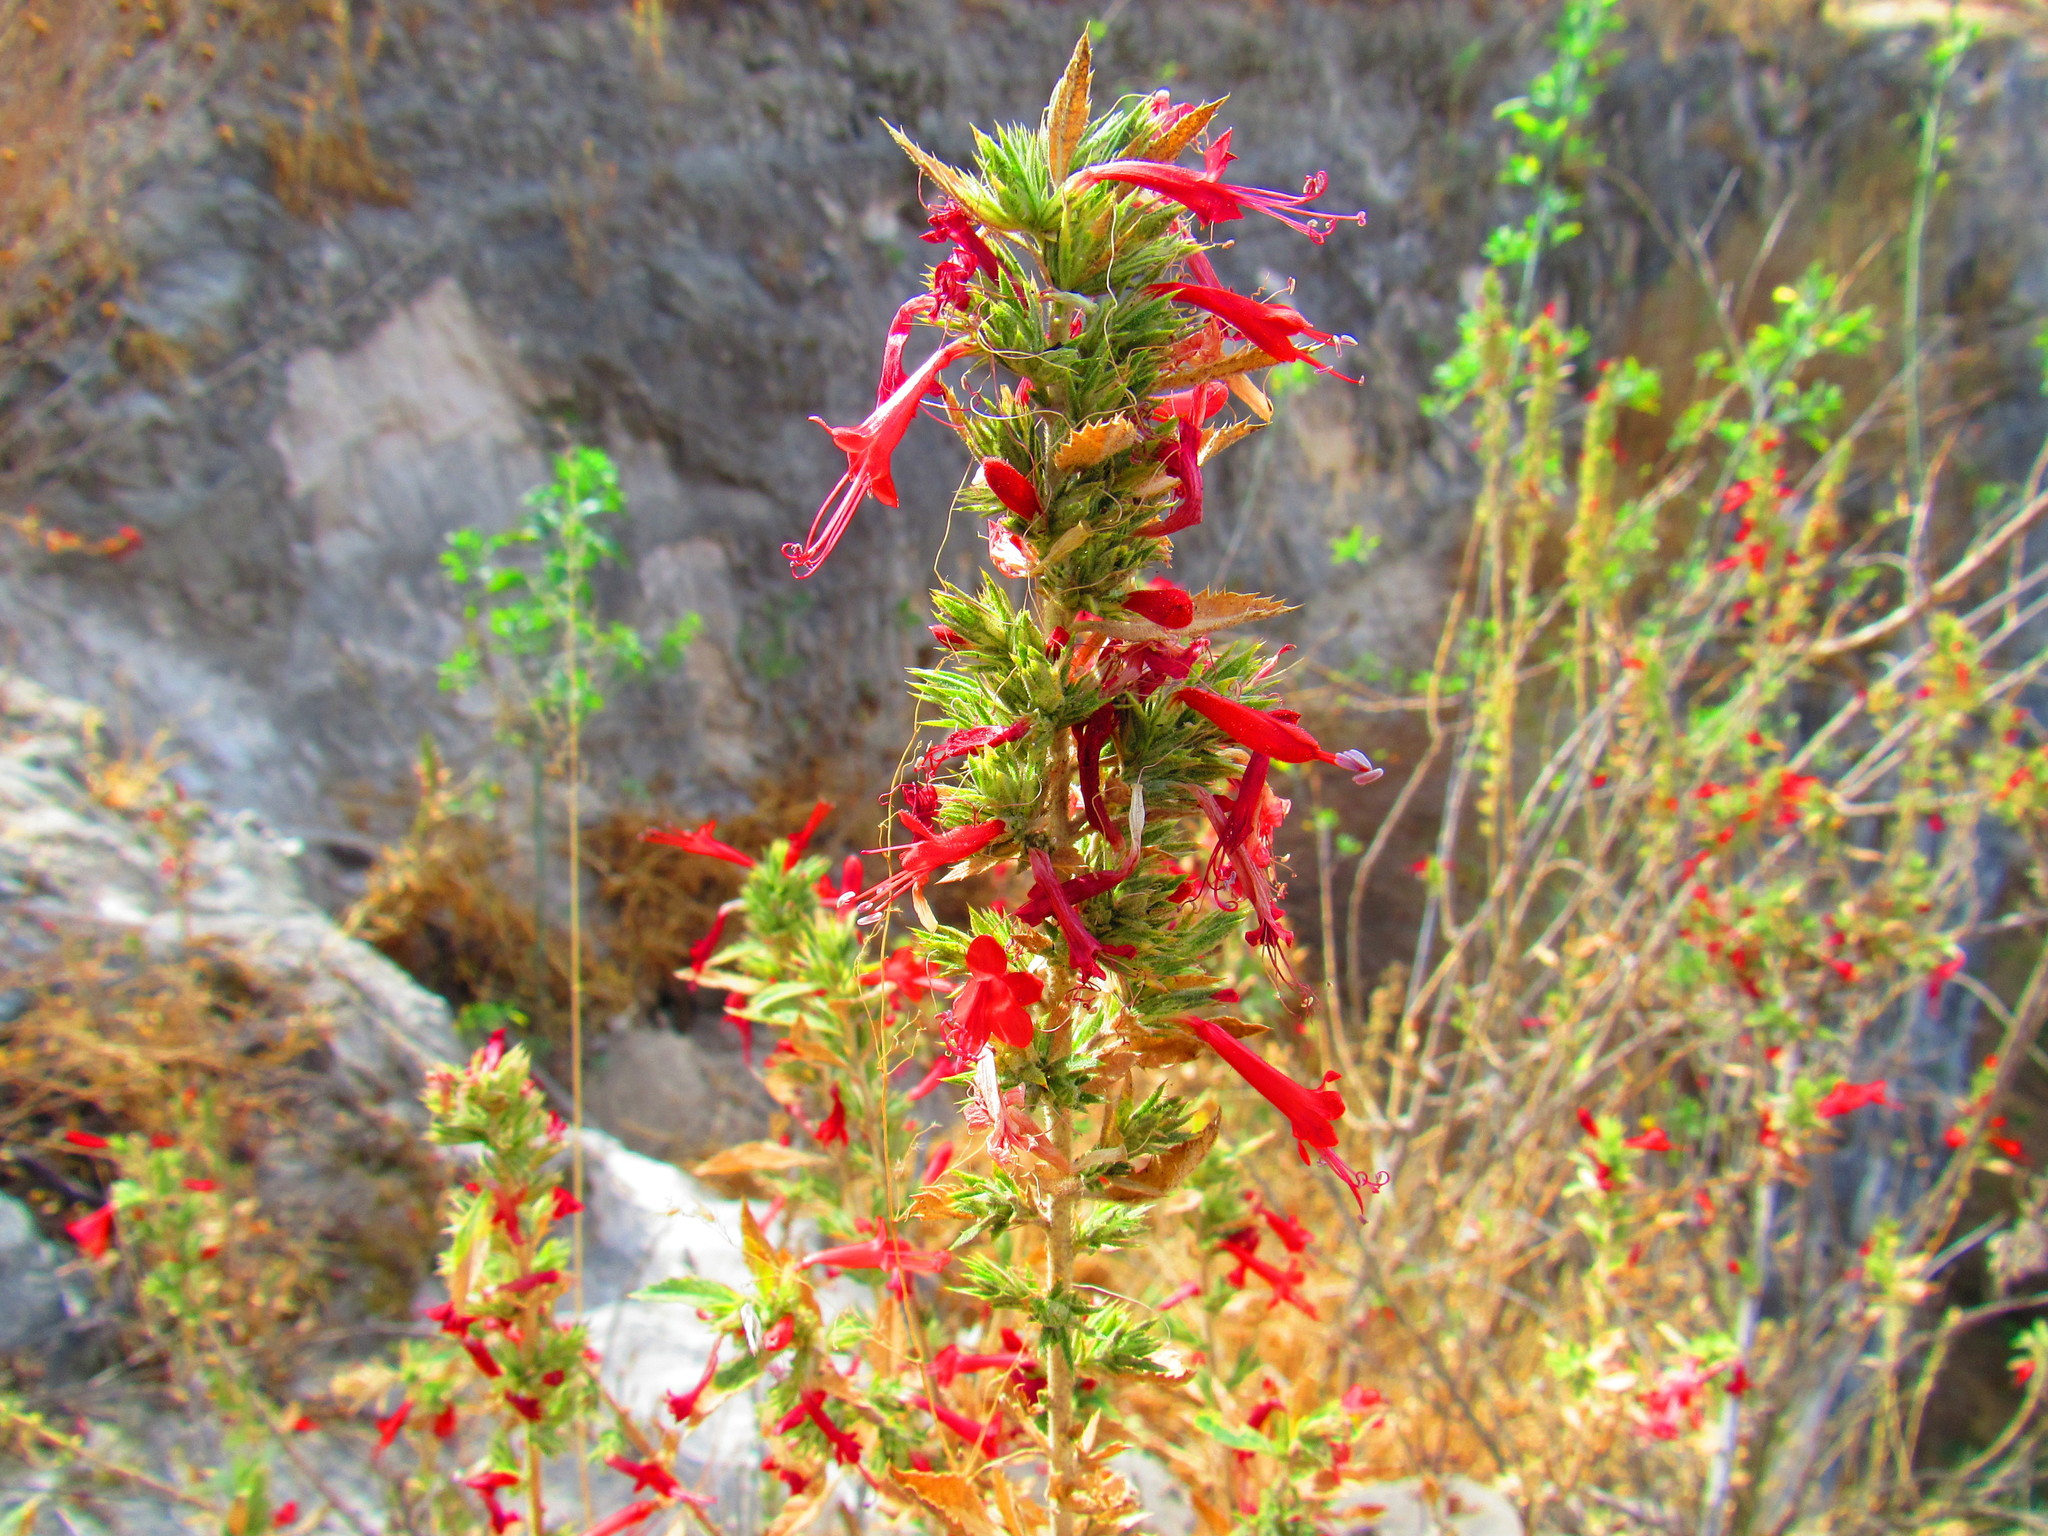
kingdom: Plantae
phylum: Tracheophyta
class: Magnoliopsida
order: Ericales
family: Polemoniaceae
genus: Loeselia
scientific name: Loeselia mexicana
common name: Mexican false calico
